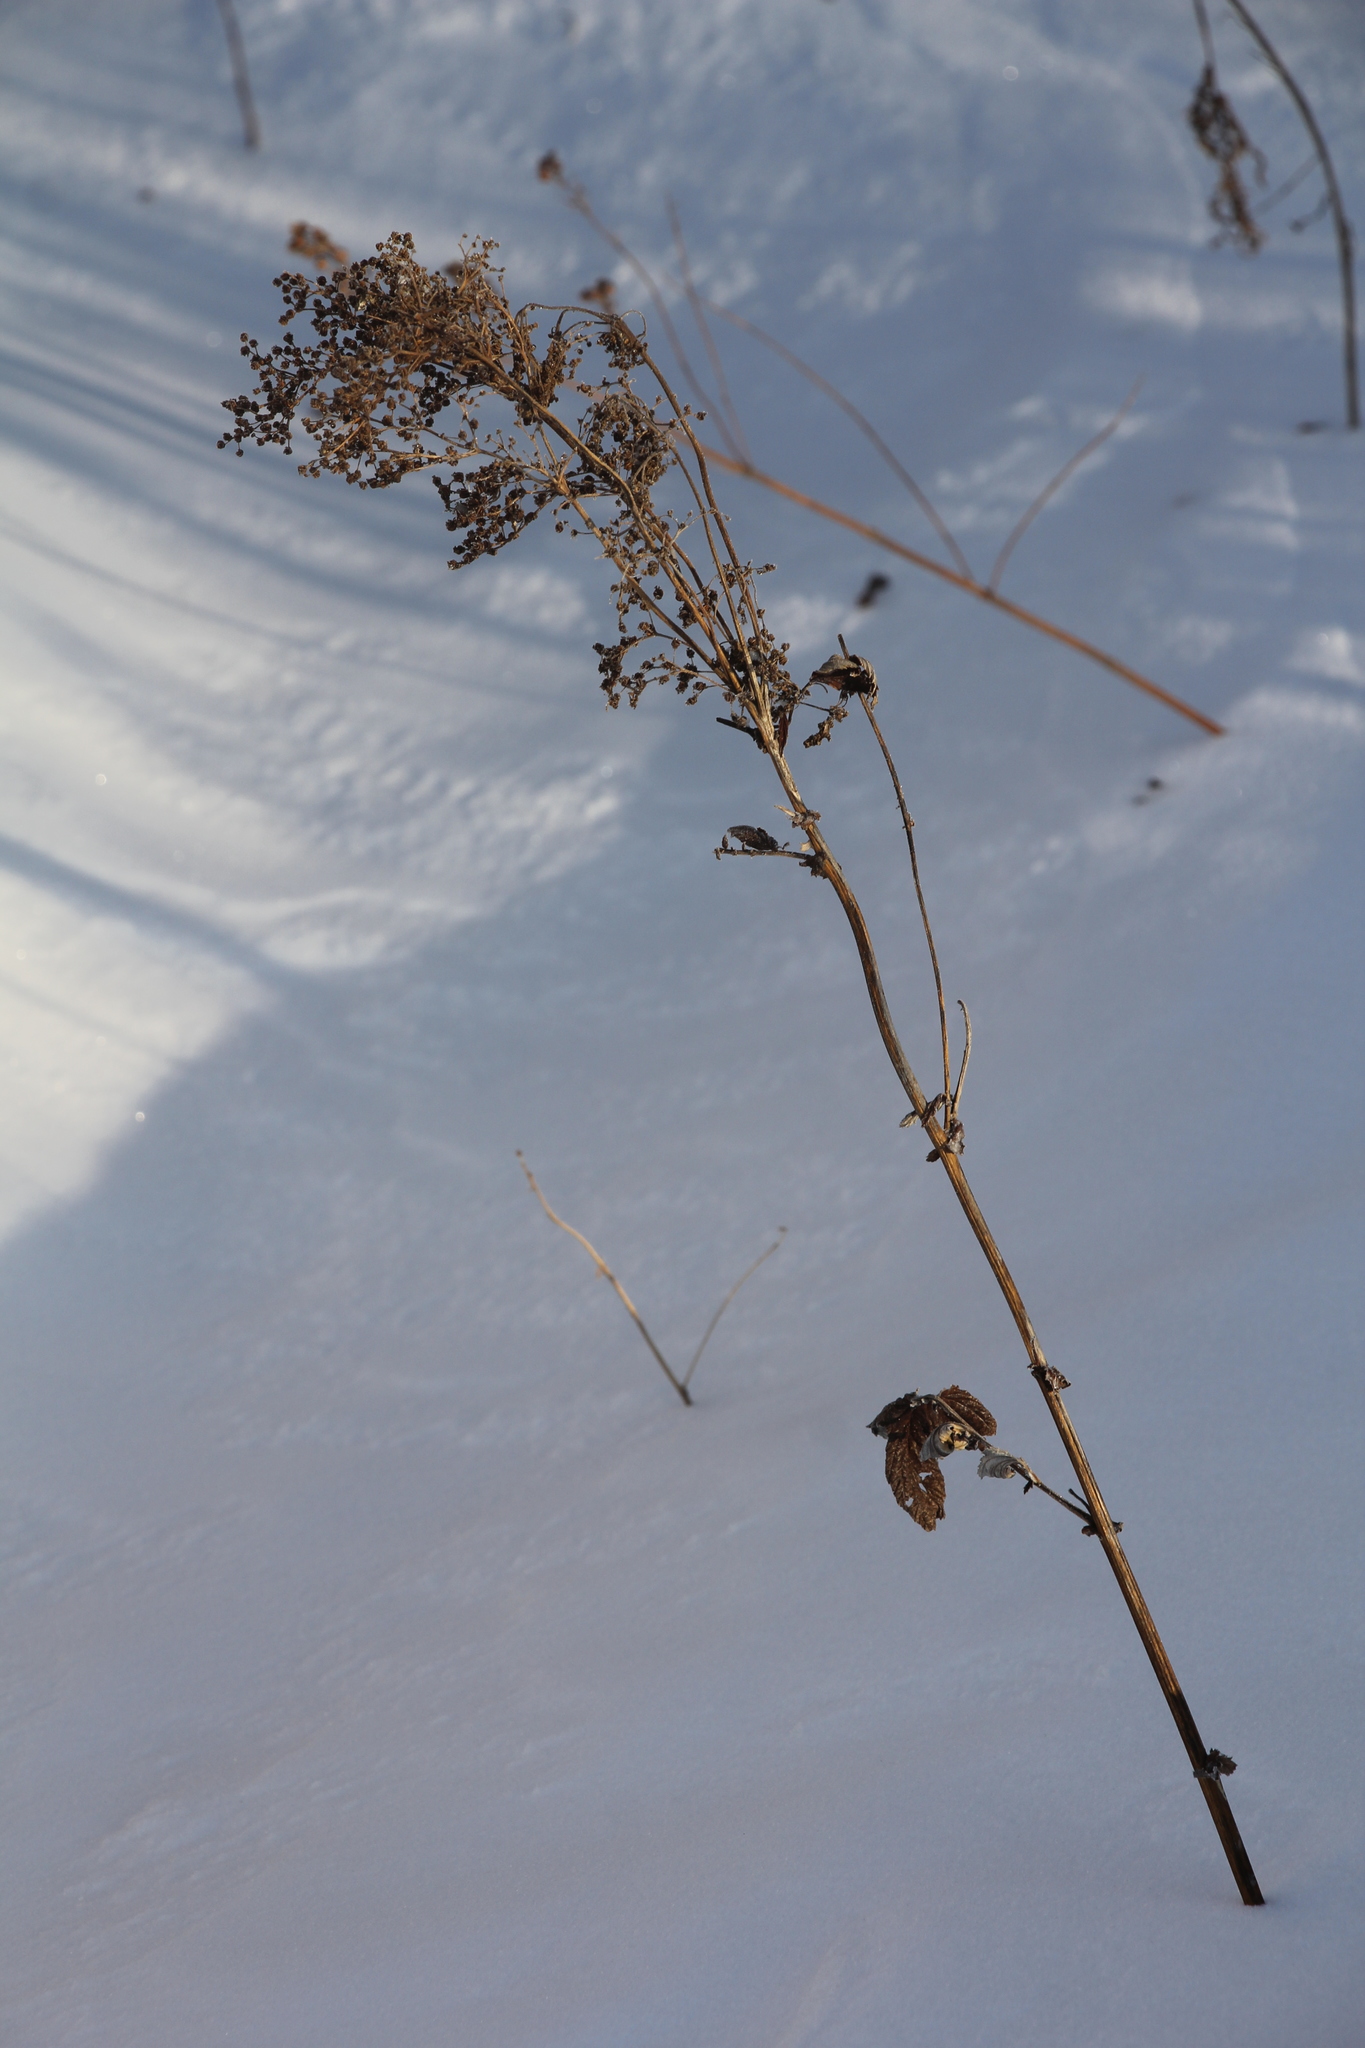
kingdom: Plantae
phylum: Tracheophyta
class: Magnoliopsida
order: Rosales
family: Rosaceae
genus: Filipendula
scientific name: Filipendula ulmaria
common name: Meadowsweet
